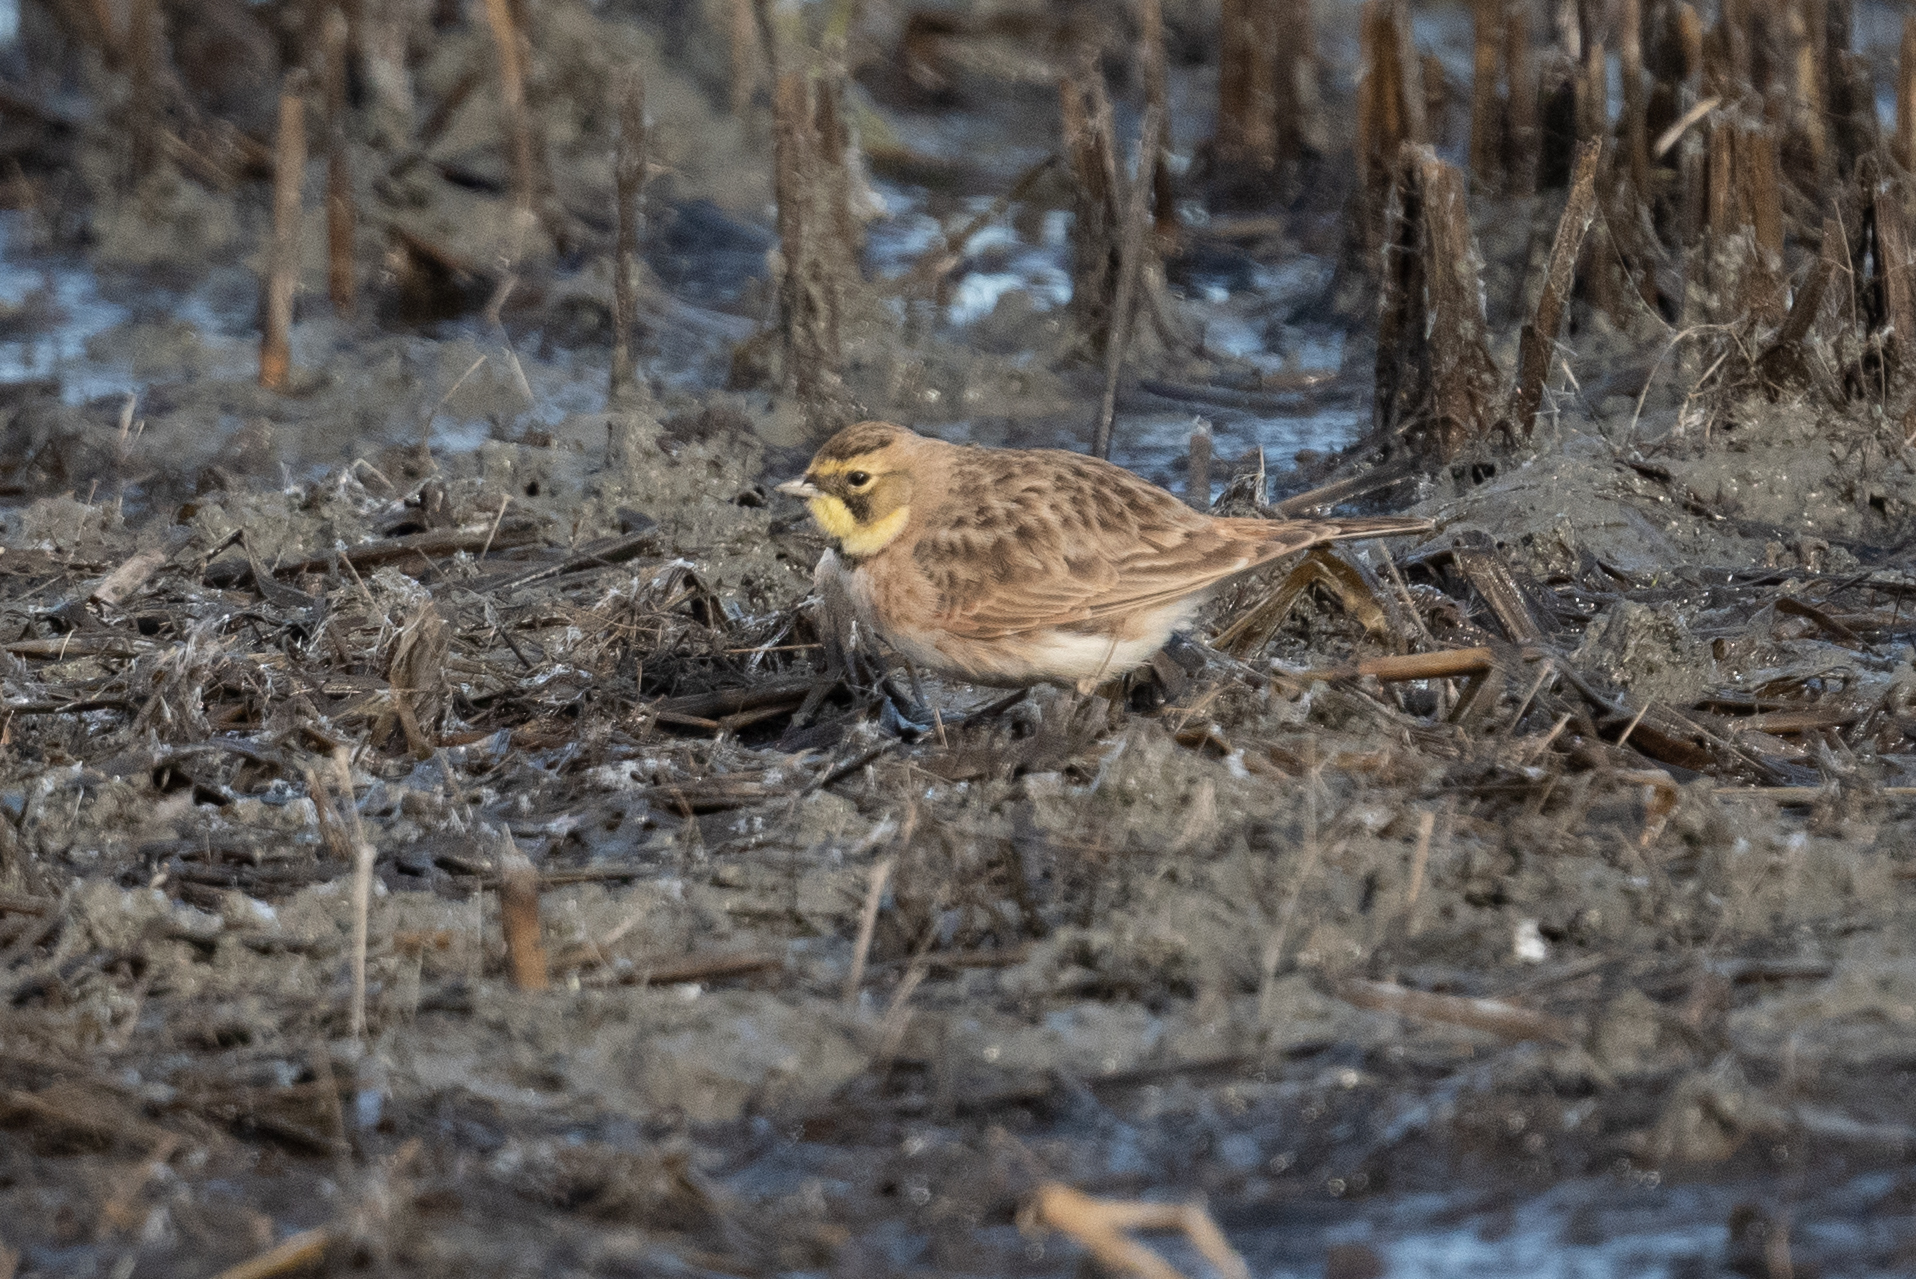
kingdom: Animalia
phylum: Chordata
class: Aves
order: Passeriformes
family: Alaudidae
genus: Eremophila
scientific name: Eremophila alpestris
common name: Horned lark
